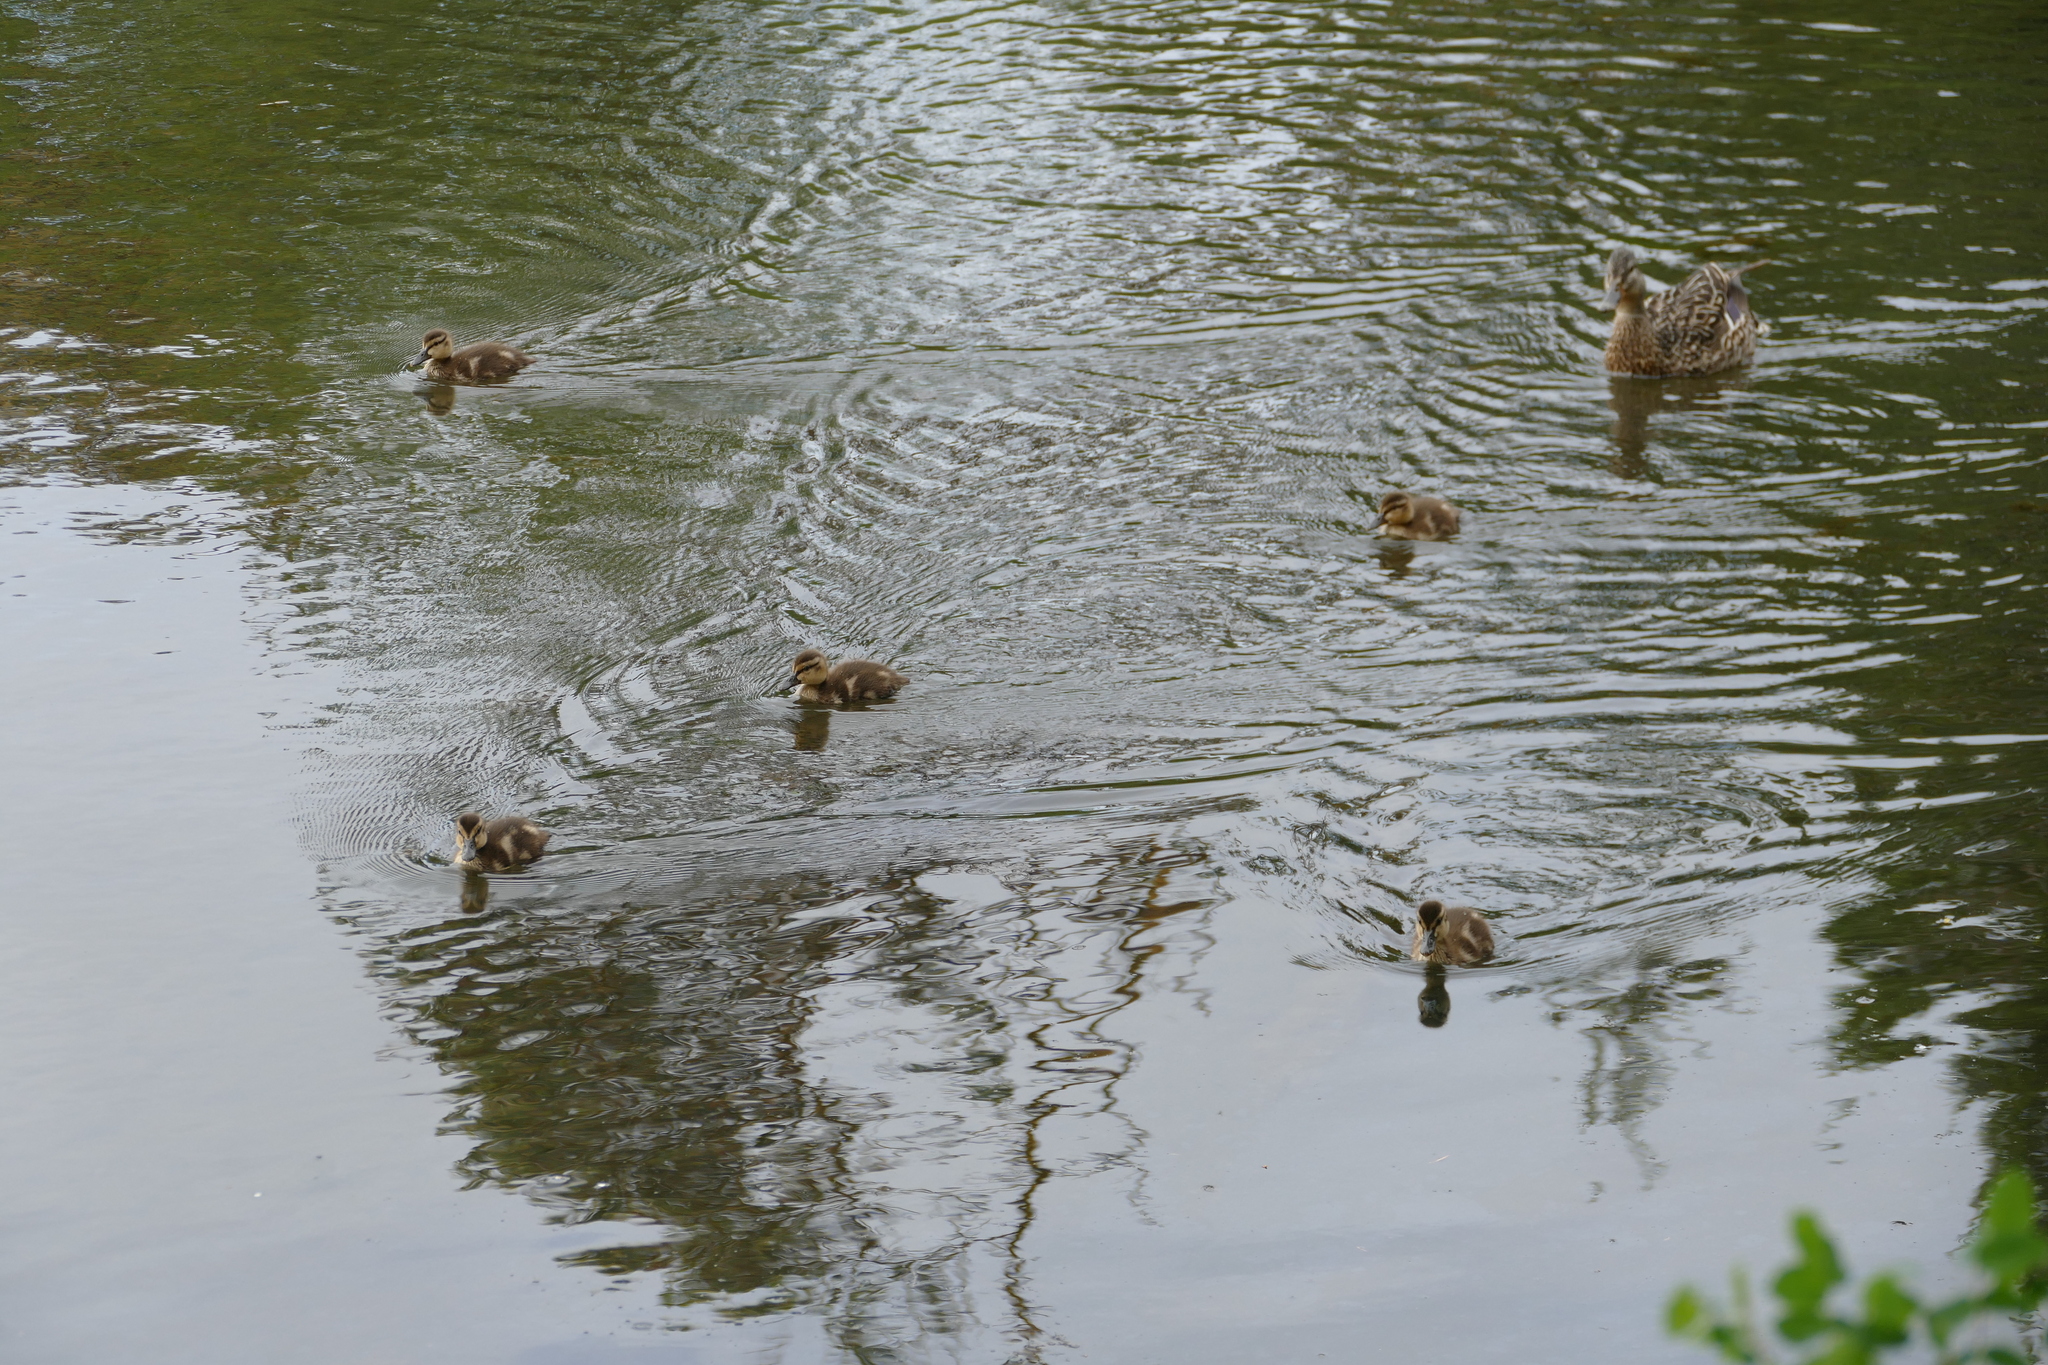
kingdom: Animalia
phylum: Chordata
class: Aves
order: Anseriformes
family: Anatidae
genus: Anas
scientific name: Anas platyrhynchos
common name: Mallard
